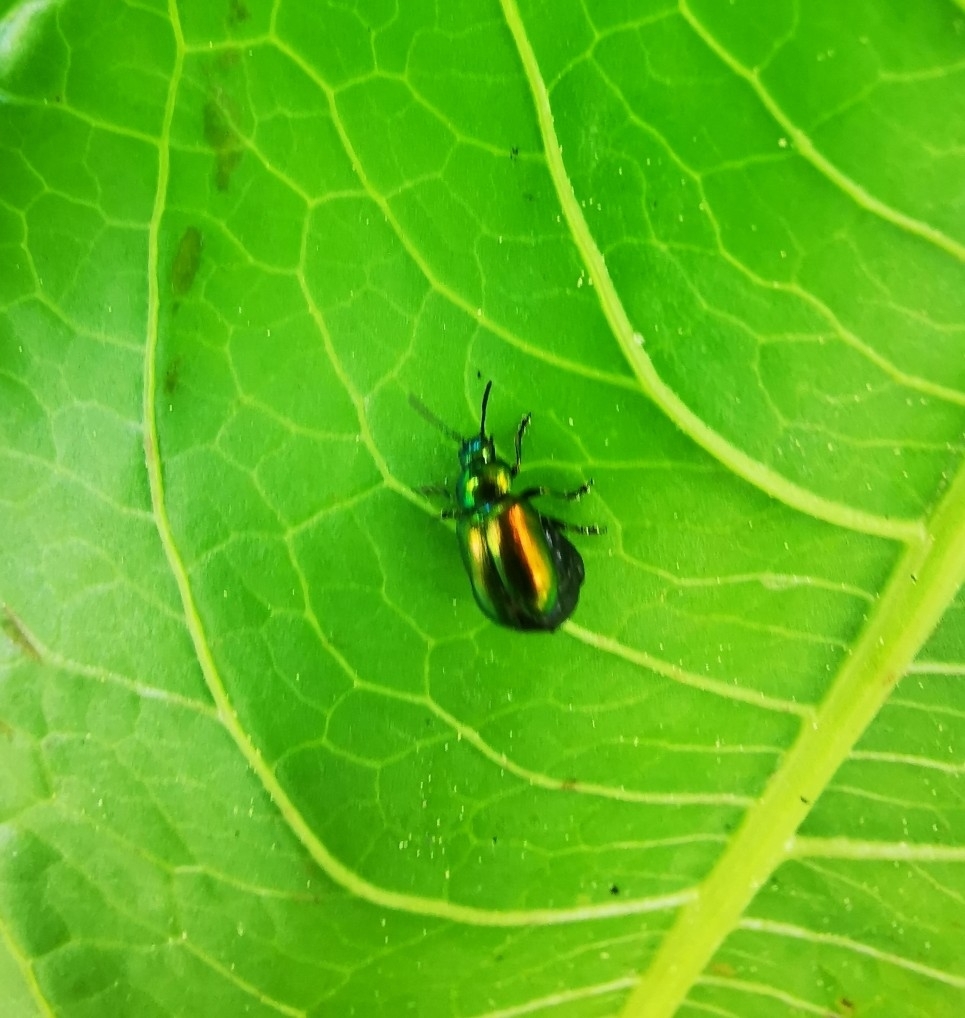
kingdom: Animalia
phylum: Arthropoda
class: Insecta
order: Coleoptera
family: Chrysomelidae
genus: Gastrophysa
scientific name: Gastrophysa viridula
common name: Green dock beetle
